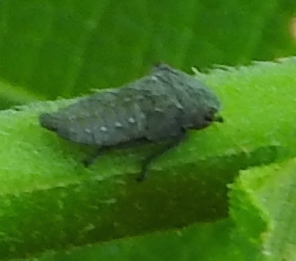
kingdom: Animalia
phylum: Arthropoda
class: Insecta
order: Hemiptera
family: Cicadellidae
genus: Homalodisca
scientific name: Homalodisca
